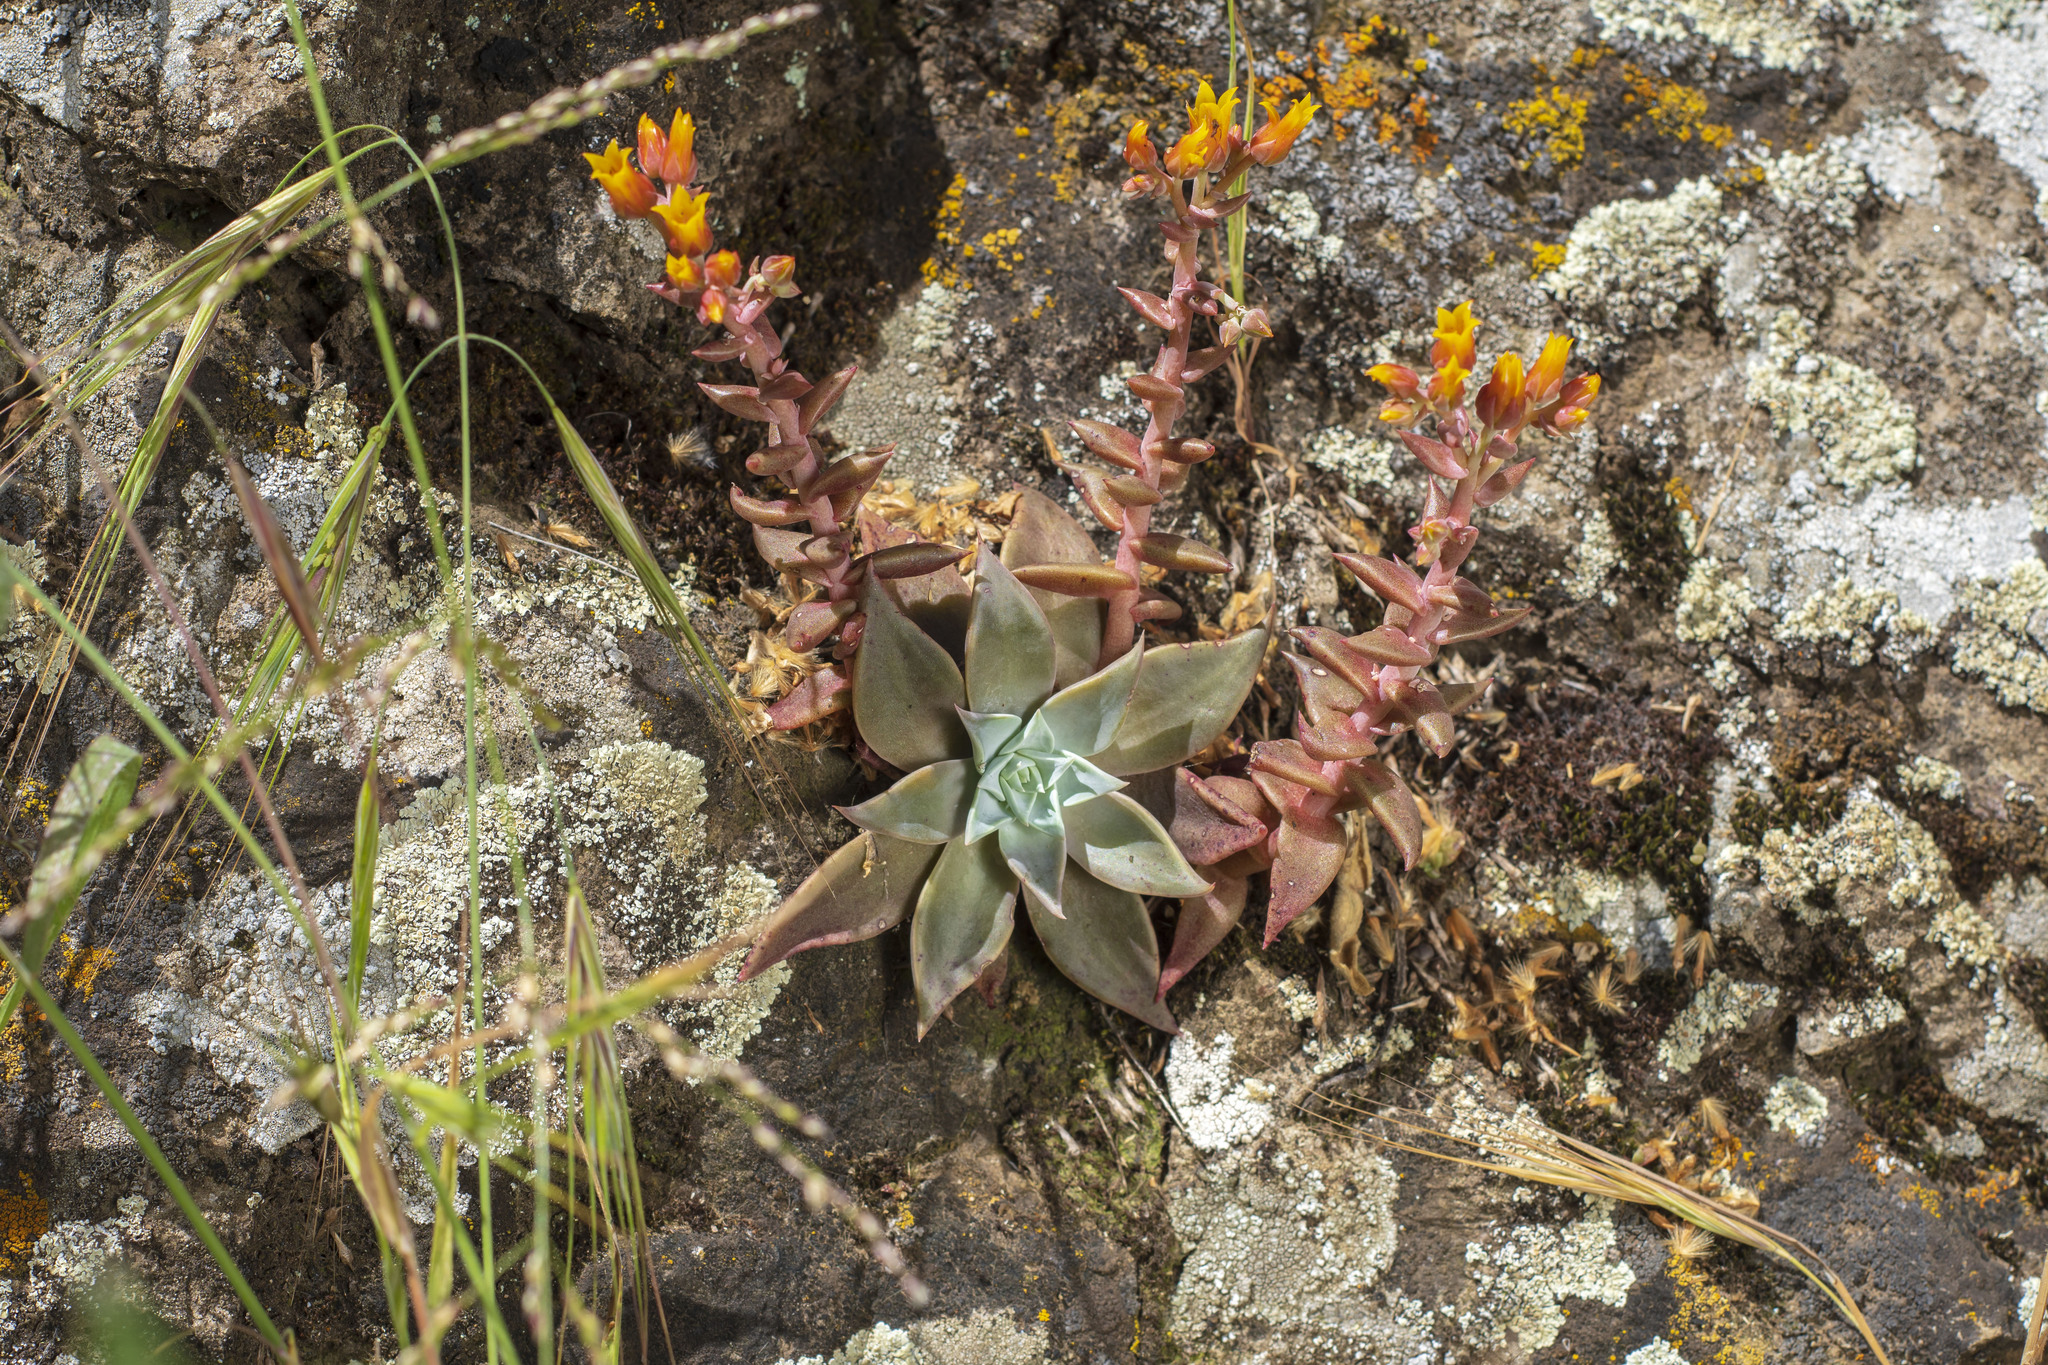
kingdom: Plantae
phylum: Tracheophyta
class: Magnoliopsida
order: Saxifragales
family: Crassulaceae
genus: Dudleya
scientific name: Dudleya cymosa
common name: Canyon dudleya
